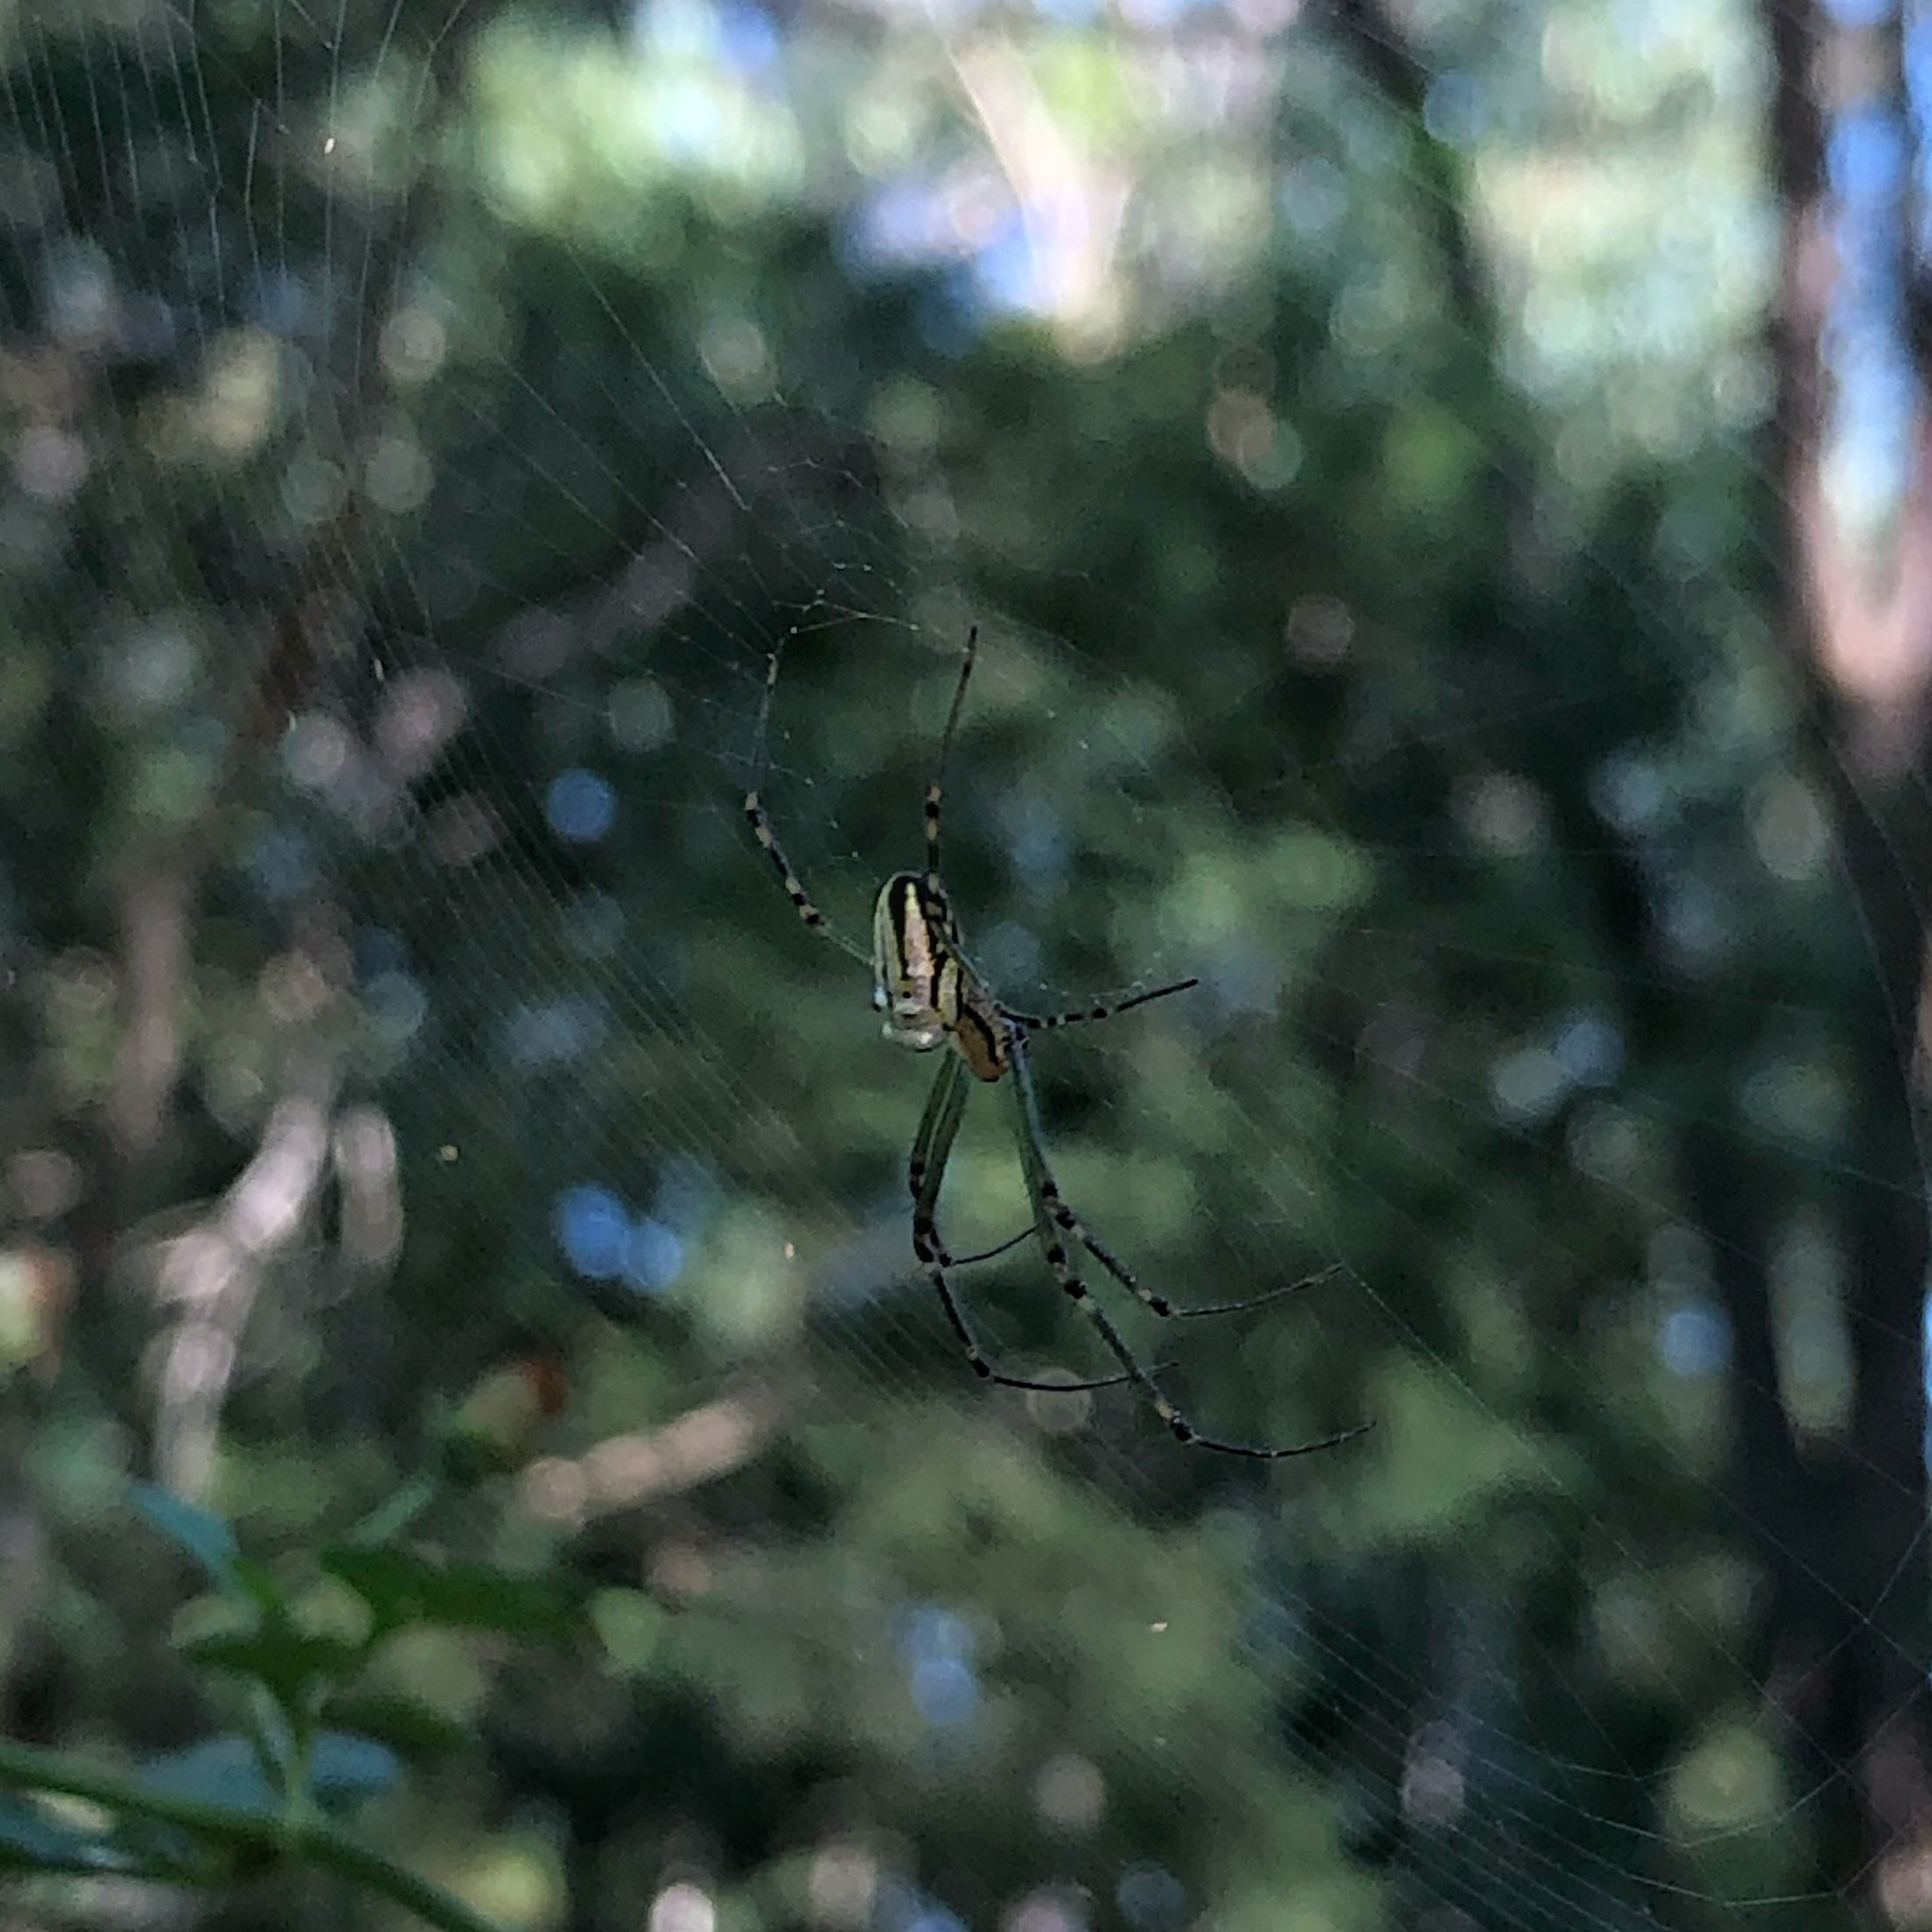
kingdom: Animalia
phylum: Arthropoda
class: Arachnida
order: Araneae
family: Tetragnathidae
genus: Leucauge
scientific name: Leucauge dromedaria
